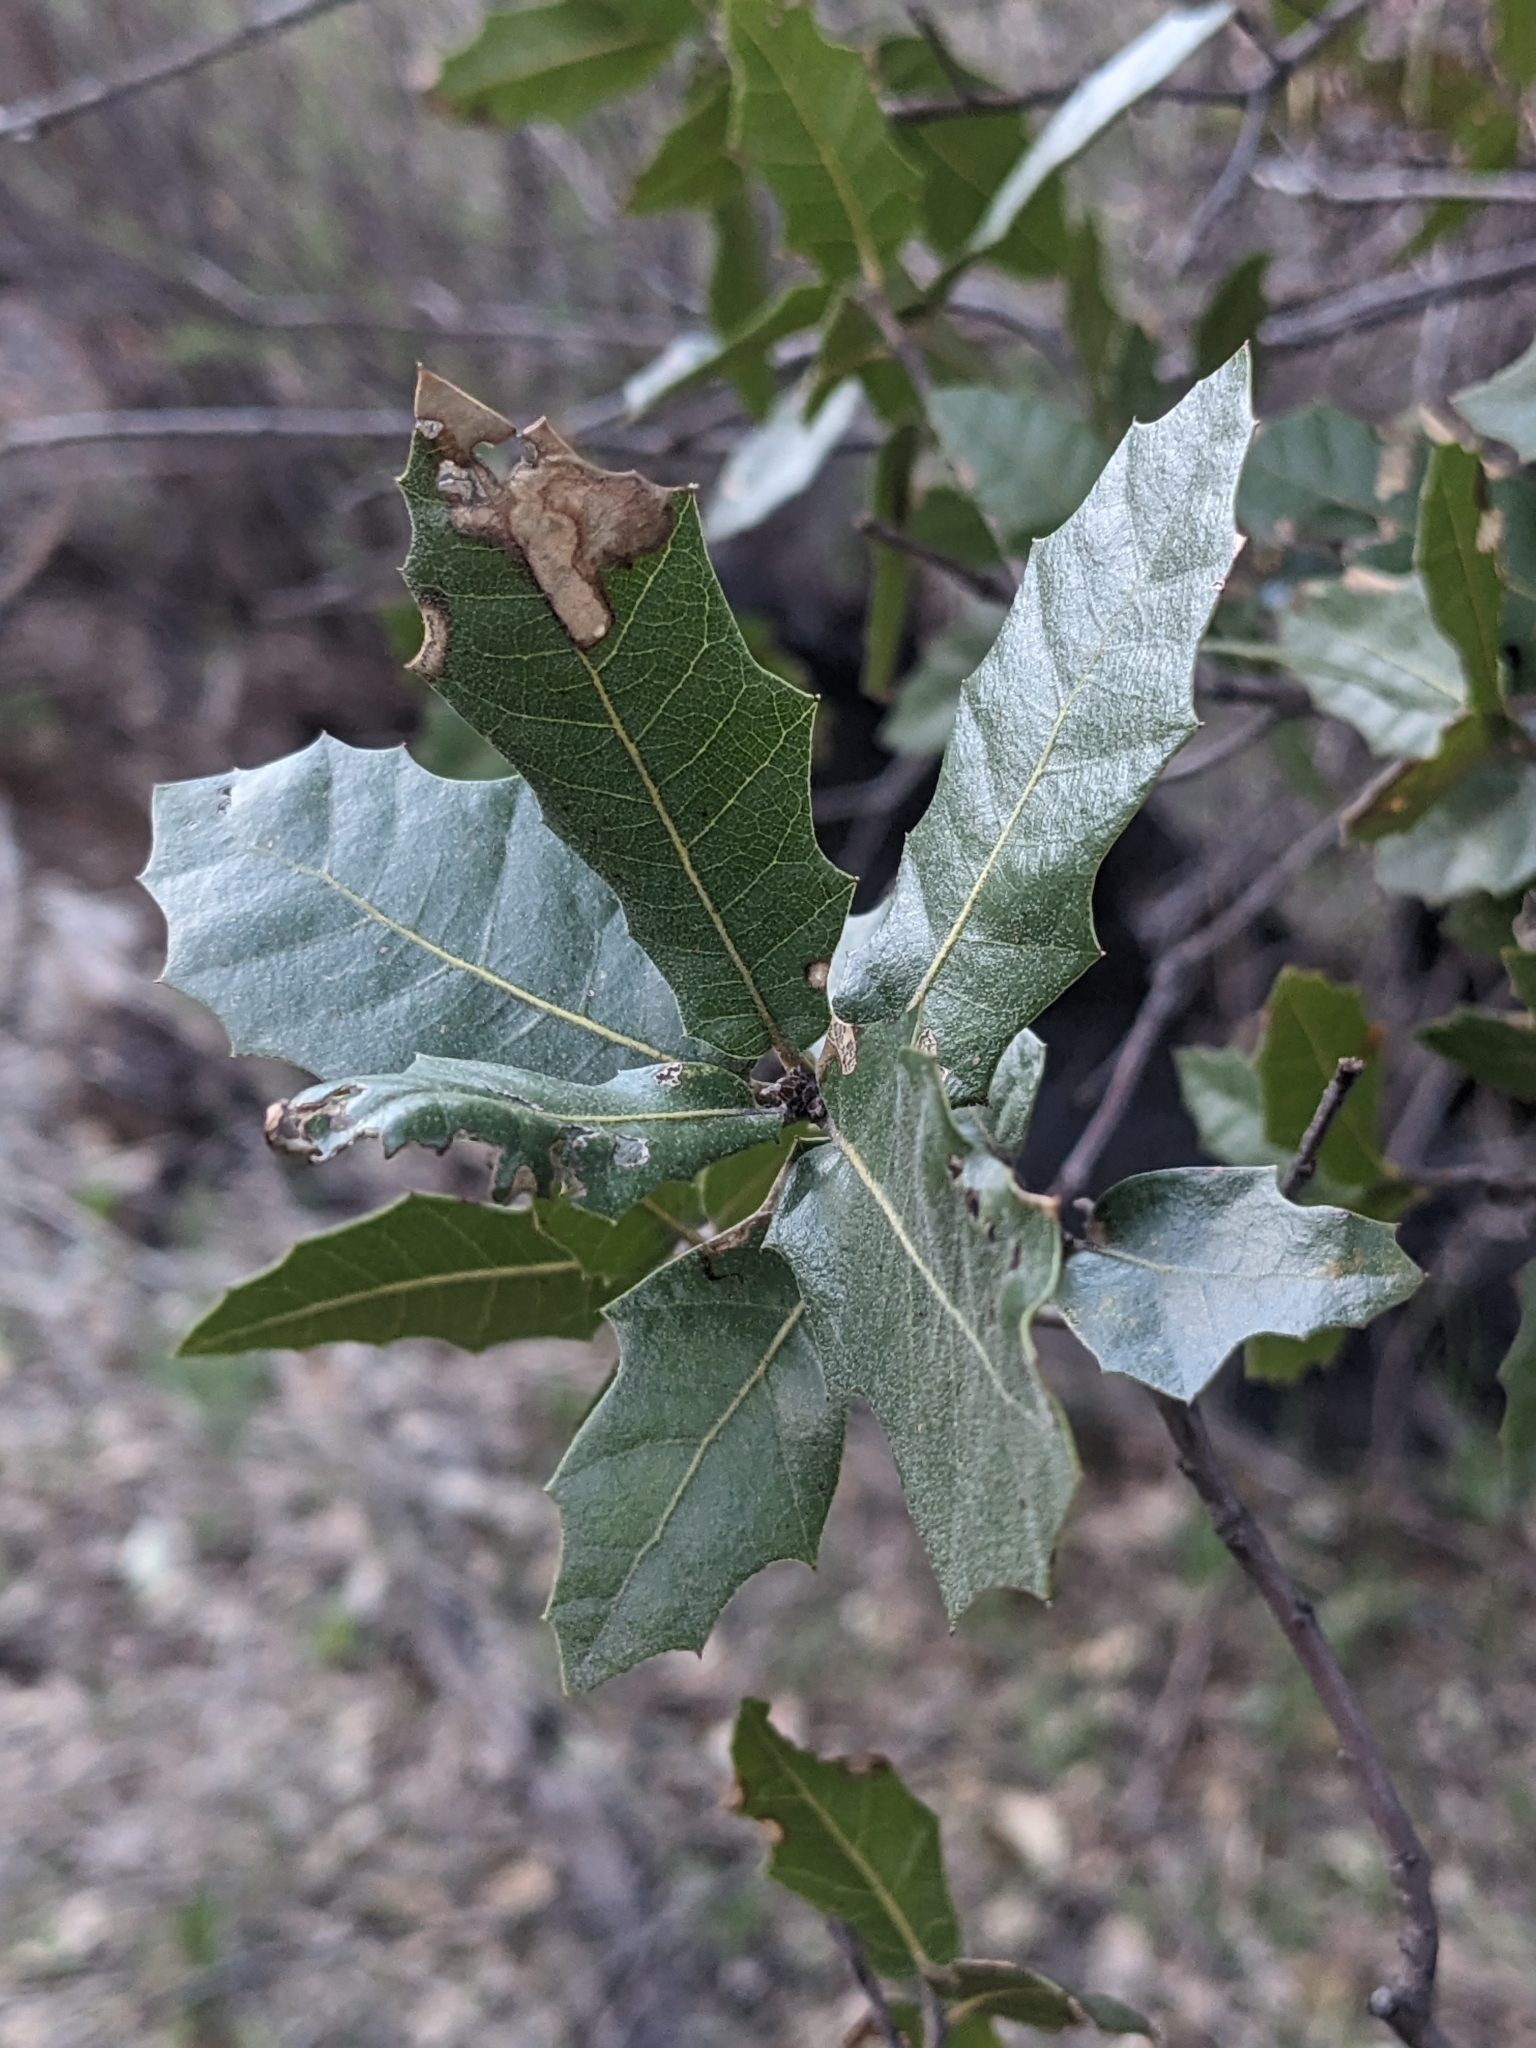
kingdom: Plantae
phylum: Tracheophyta
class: Magnoliopsida
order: Fagales
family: Fagaceae
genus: Quercus
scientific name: Quercus emoryi
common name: Emory oak
